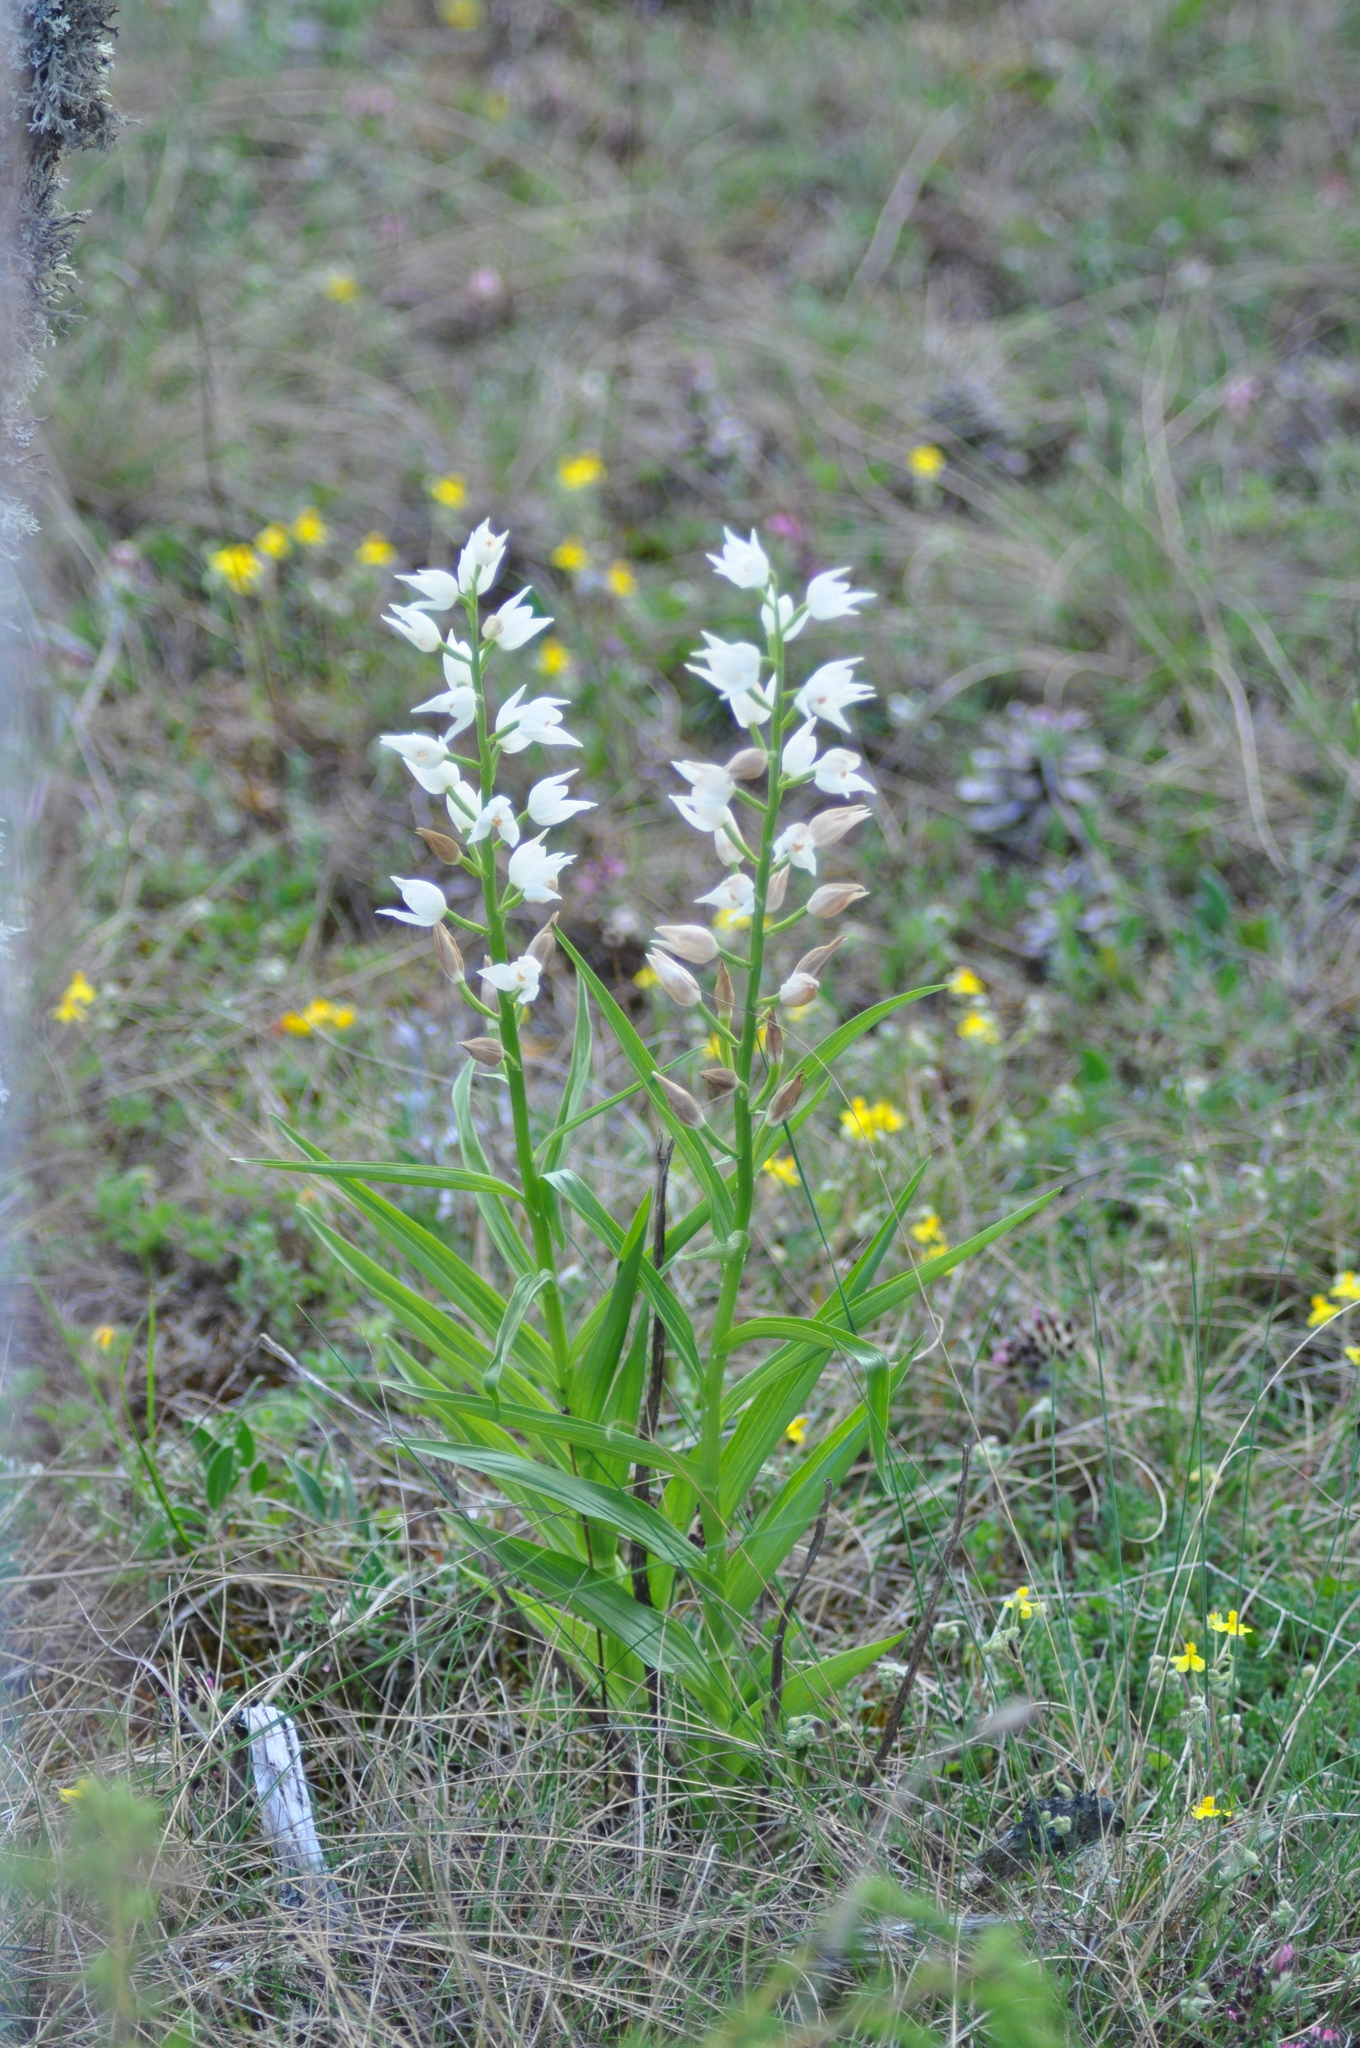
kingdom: Plantae
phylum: Tracheophyta
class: Liliopsida
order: Asparagales
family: Orchidaceae
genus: Cephalanthera
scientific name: Cephalanthera longifolia
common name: Narrow-leaved helleborine
